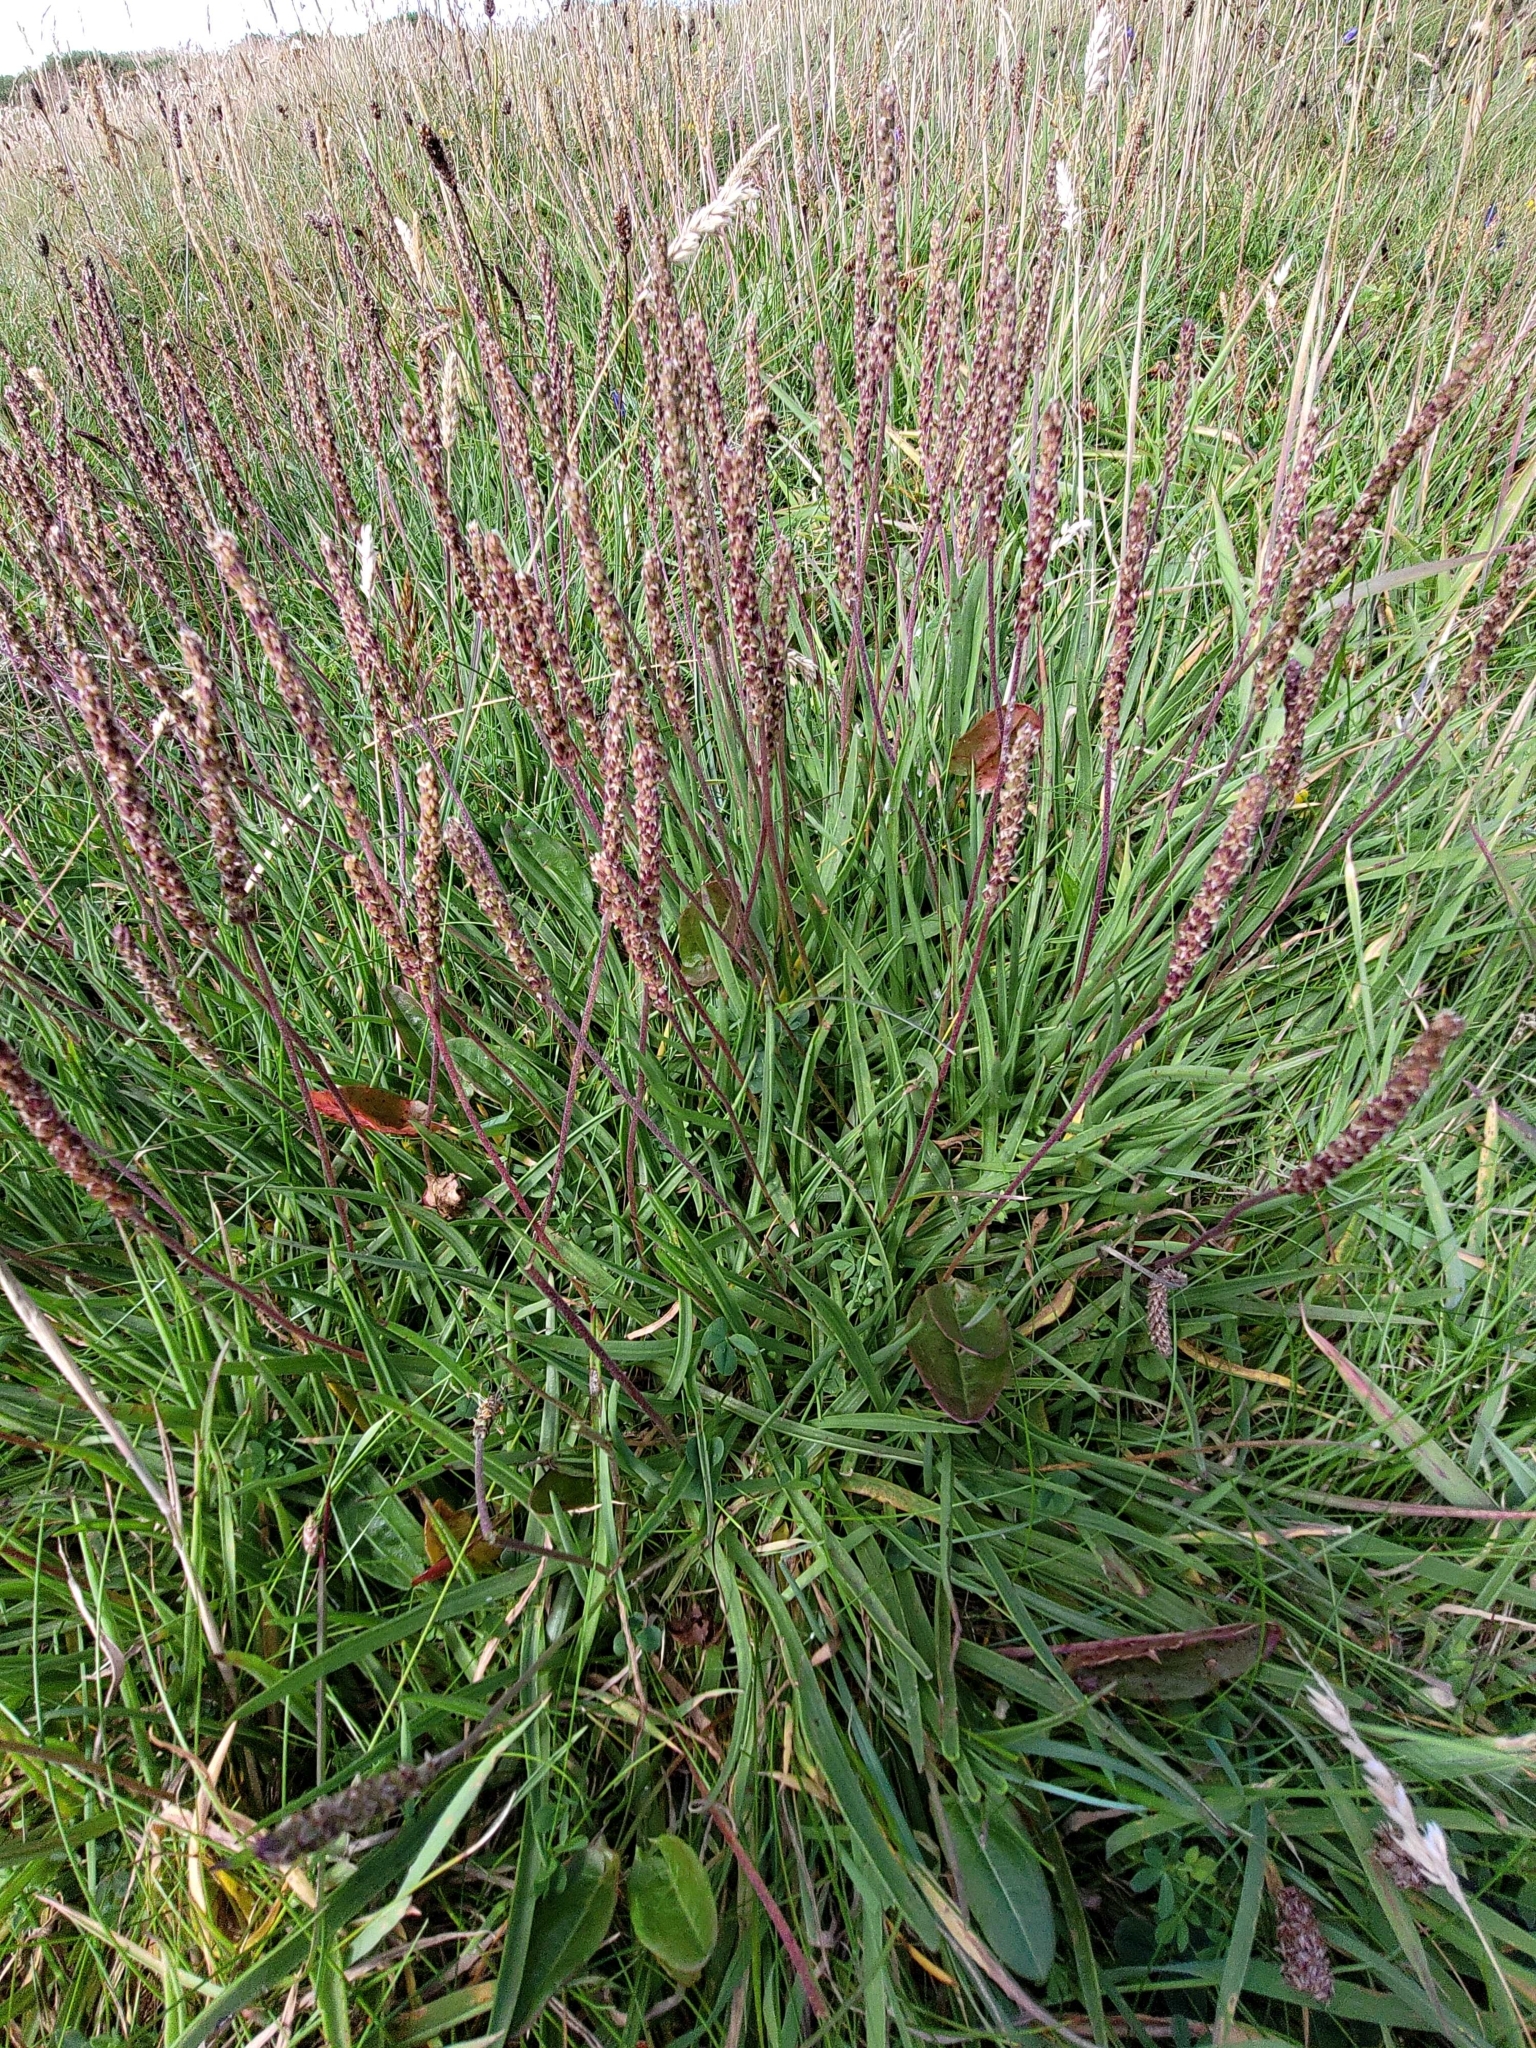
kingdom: Plantae
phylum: Tracheophyta
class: Magnoliopsida
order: Lamiales
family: Plantaginaceae
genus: Plantago
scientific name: Plantago maritima
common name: Sea plantain
